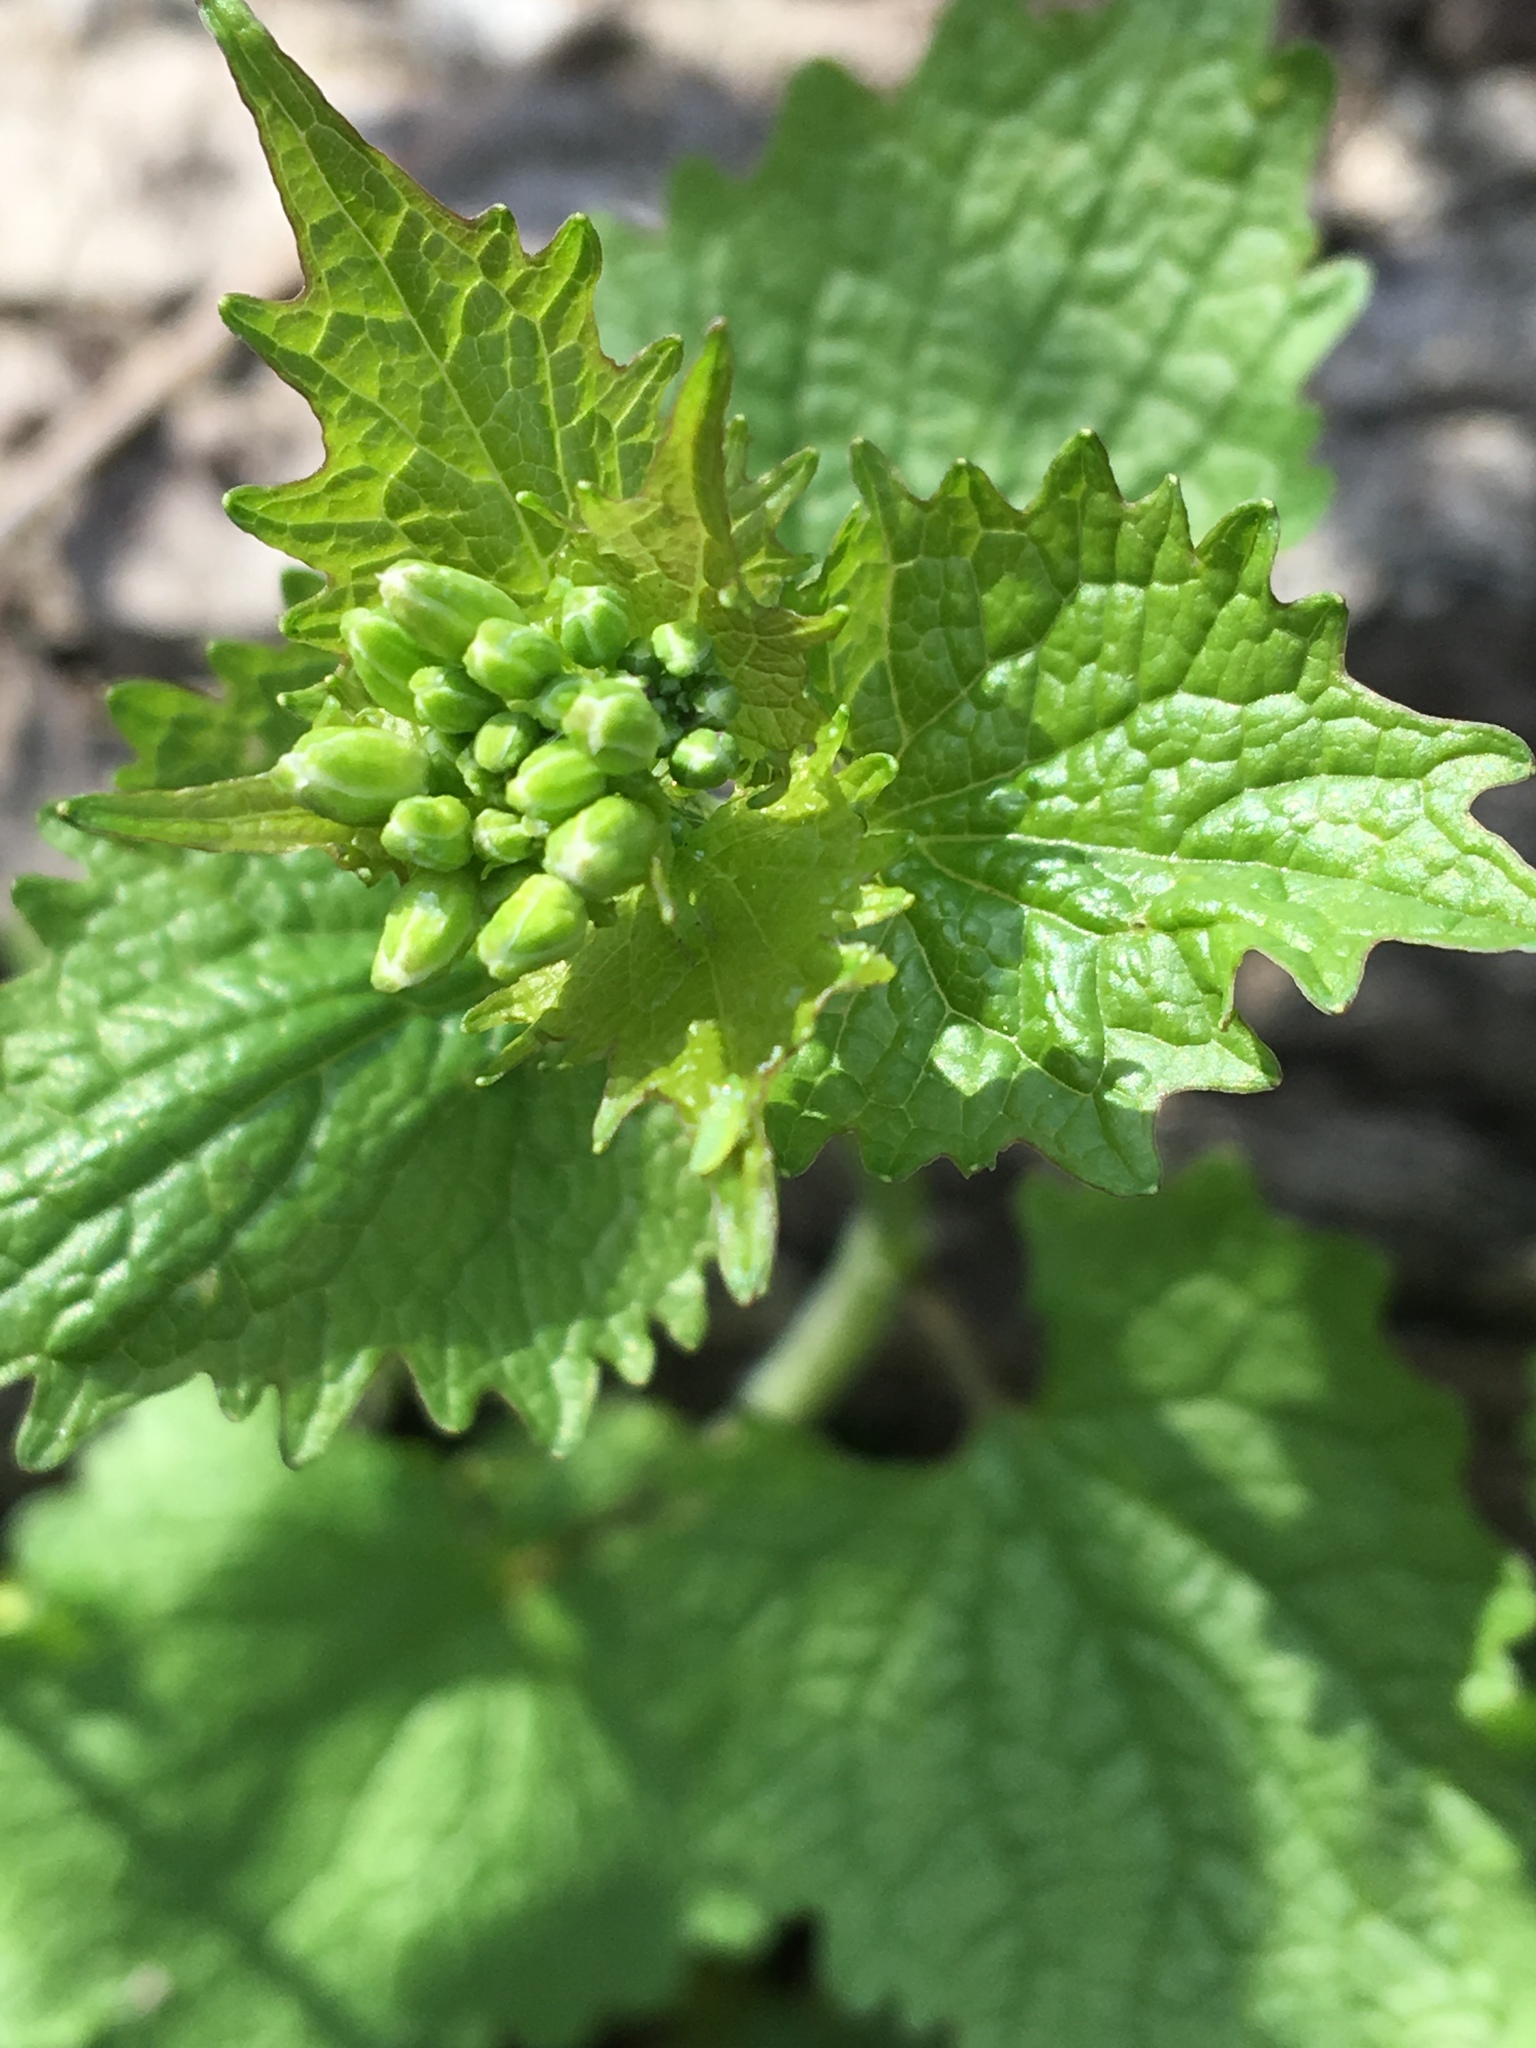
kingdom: Plantae
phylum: Tracheophyta
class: Magnoliopsida
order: Brassicales
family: Brassicaceae
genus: Alliaria
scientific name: Alliaria petiolata
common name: Garlic mustard
